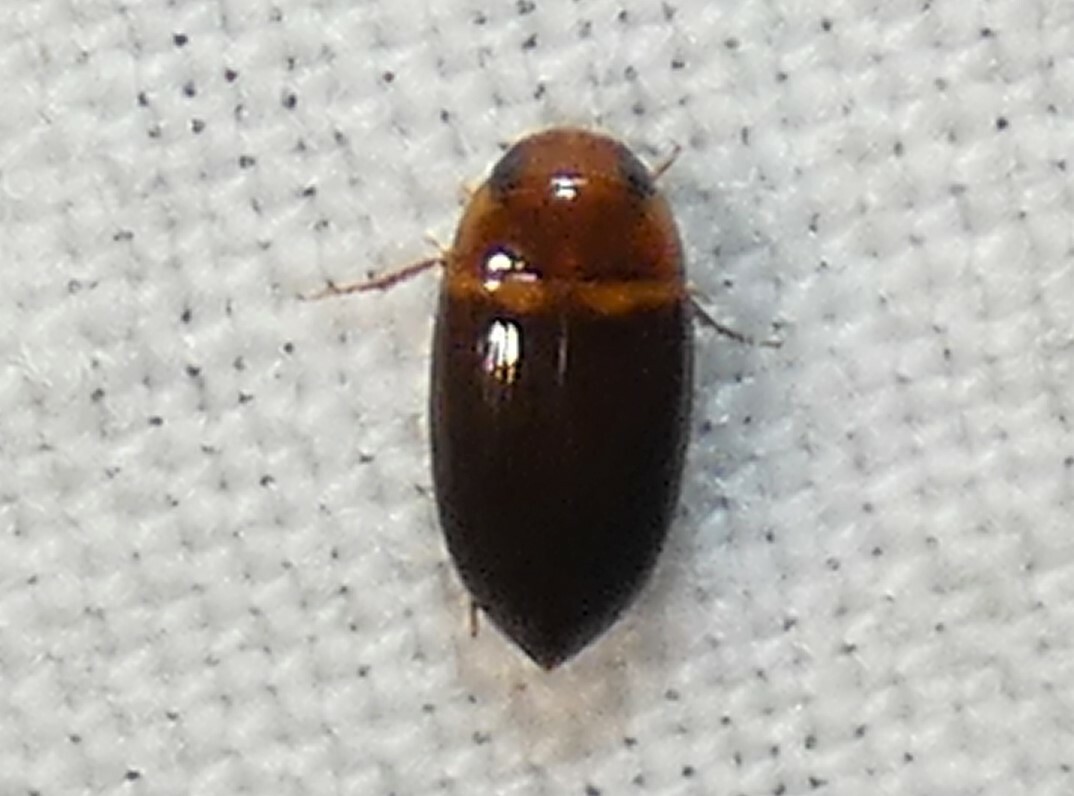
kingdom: Animalia
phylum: Arthropoda
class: Insecta
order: Coleoptera
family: Dytiscidae
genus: Copelatus
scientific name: Copelatus caelatipennis
